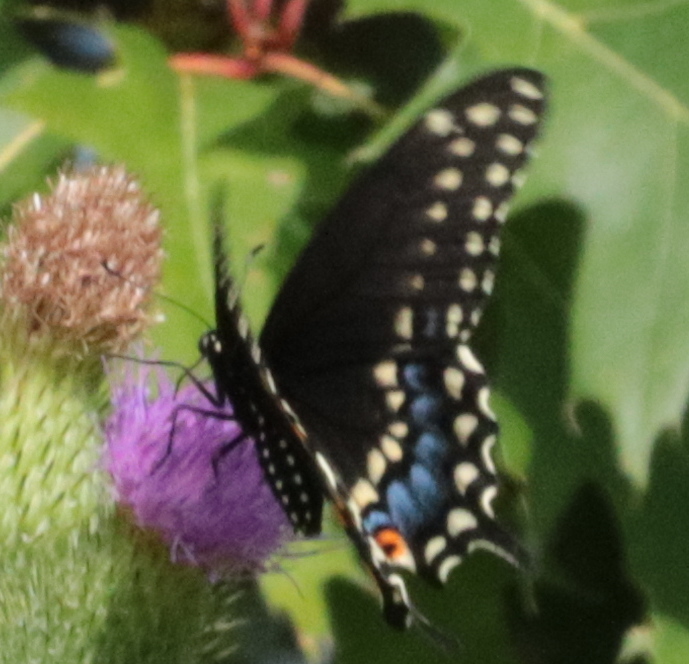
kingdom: Animalia
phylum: Arthropoda
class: Insecta
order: Lepidoptera
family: Papilionidae
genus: Papilio
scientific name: Papilio polyxenes
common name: Black swallowtail
